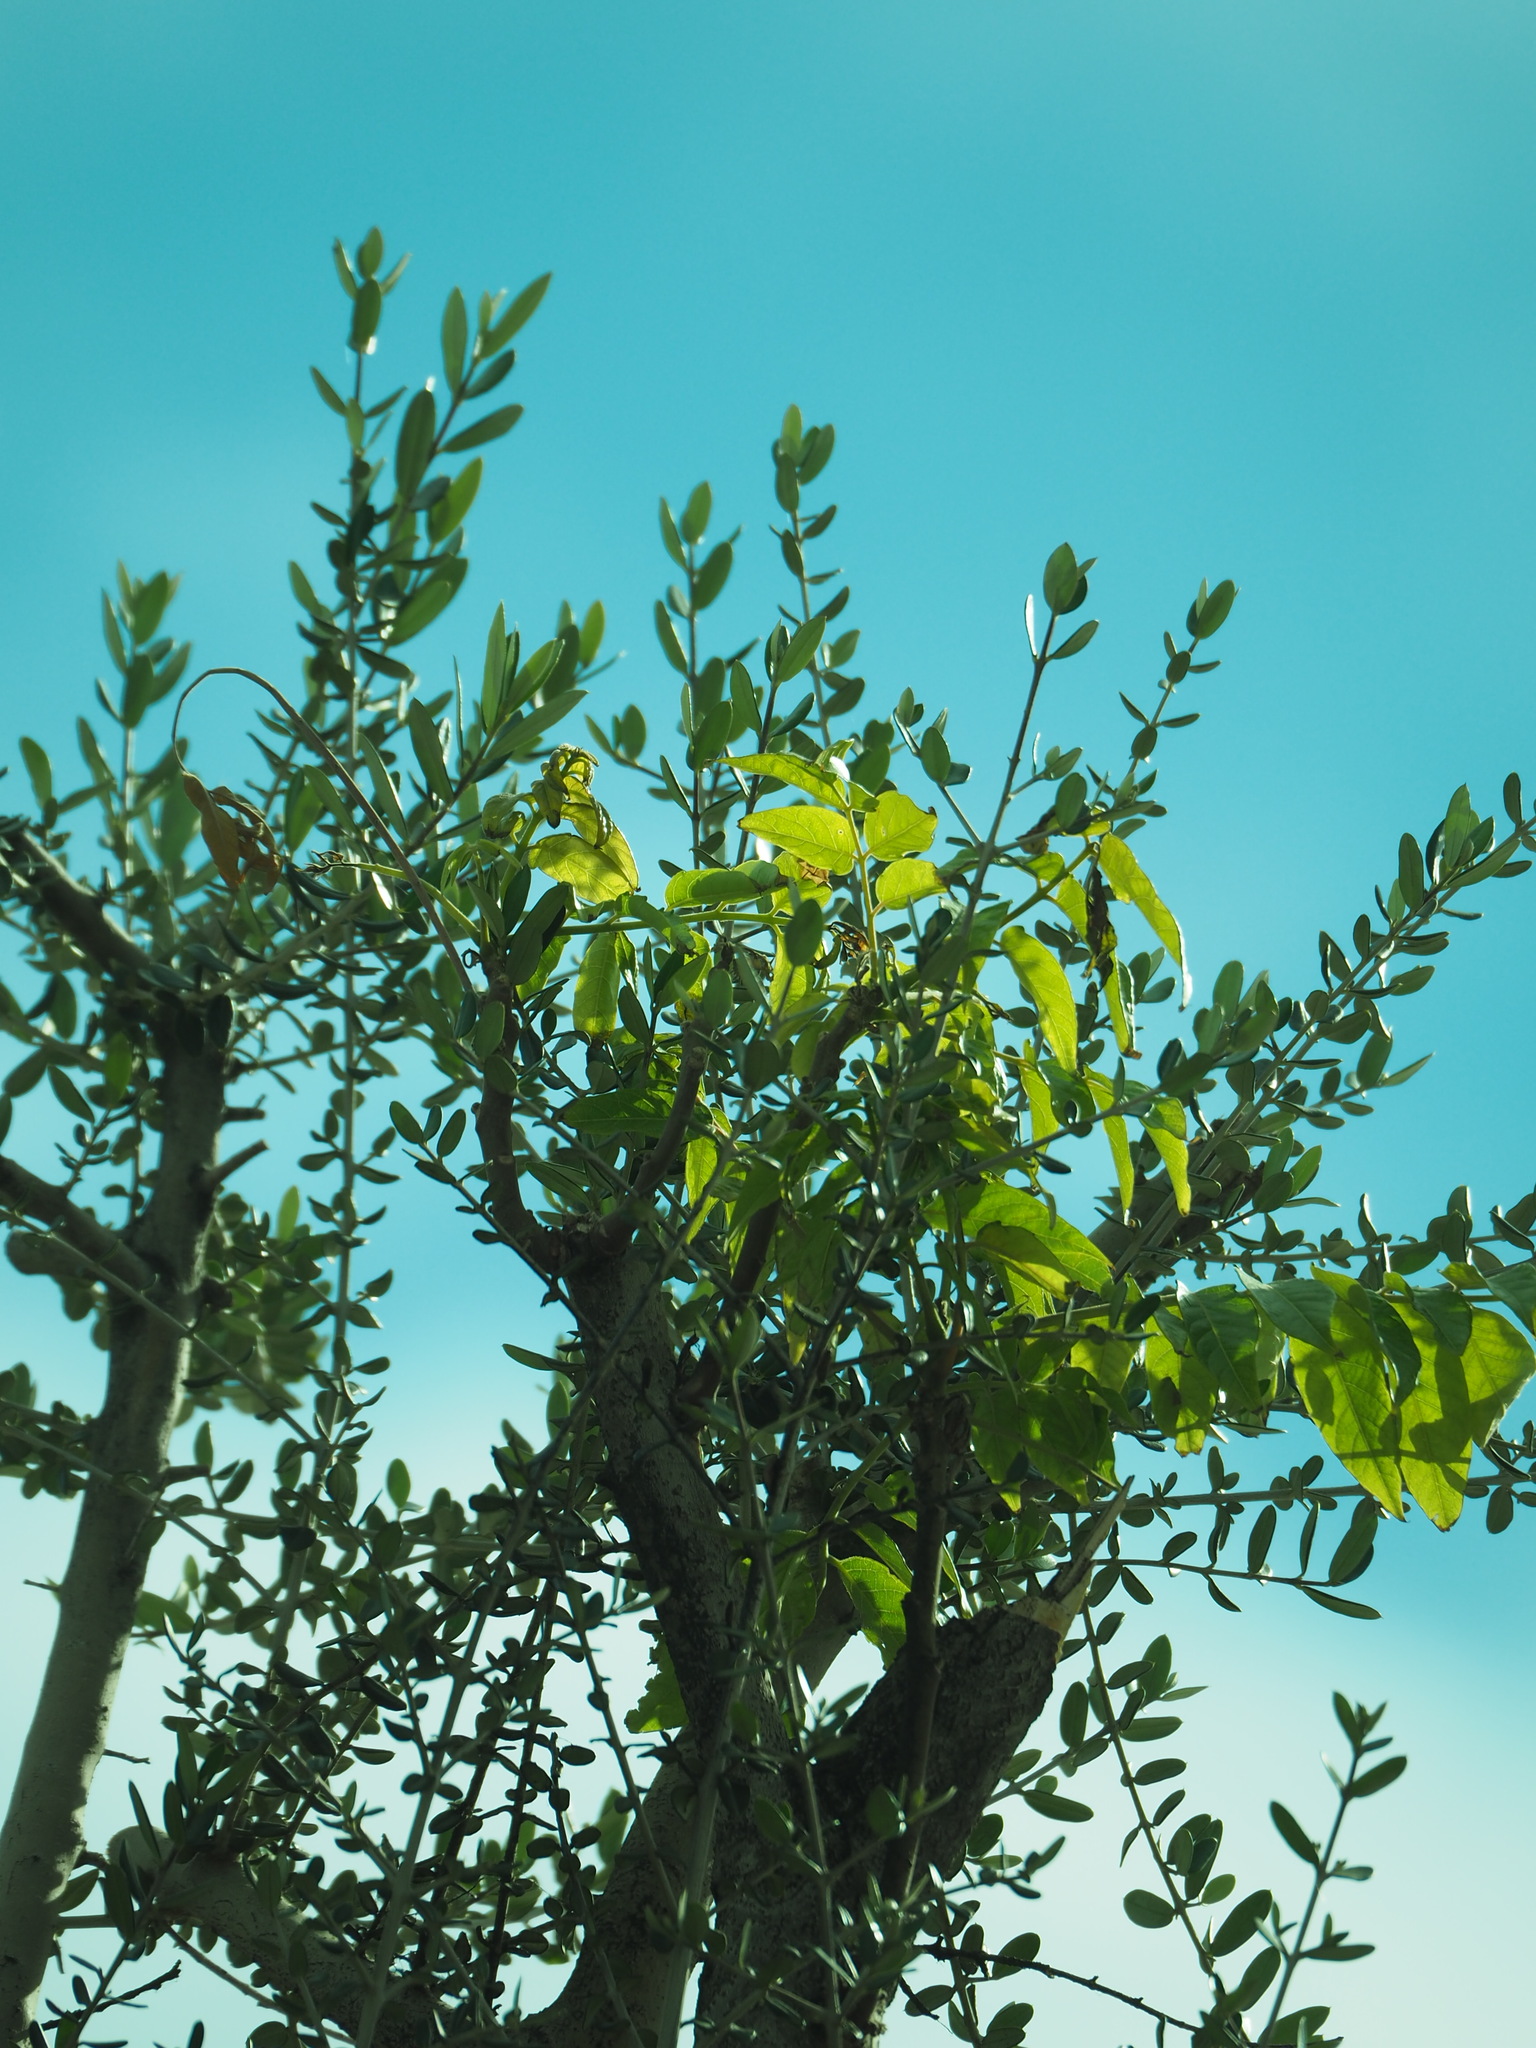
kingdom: Plantae
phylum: Tracheophyta
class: Magnoliopsida
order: Lamiales
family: Oleaceae
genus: Olea
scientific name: Olea europaea
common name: Olive
